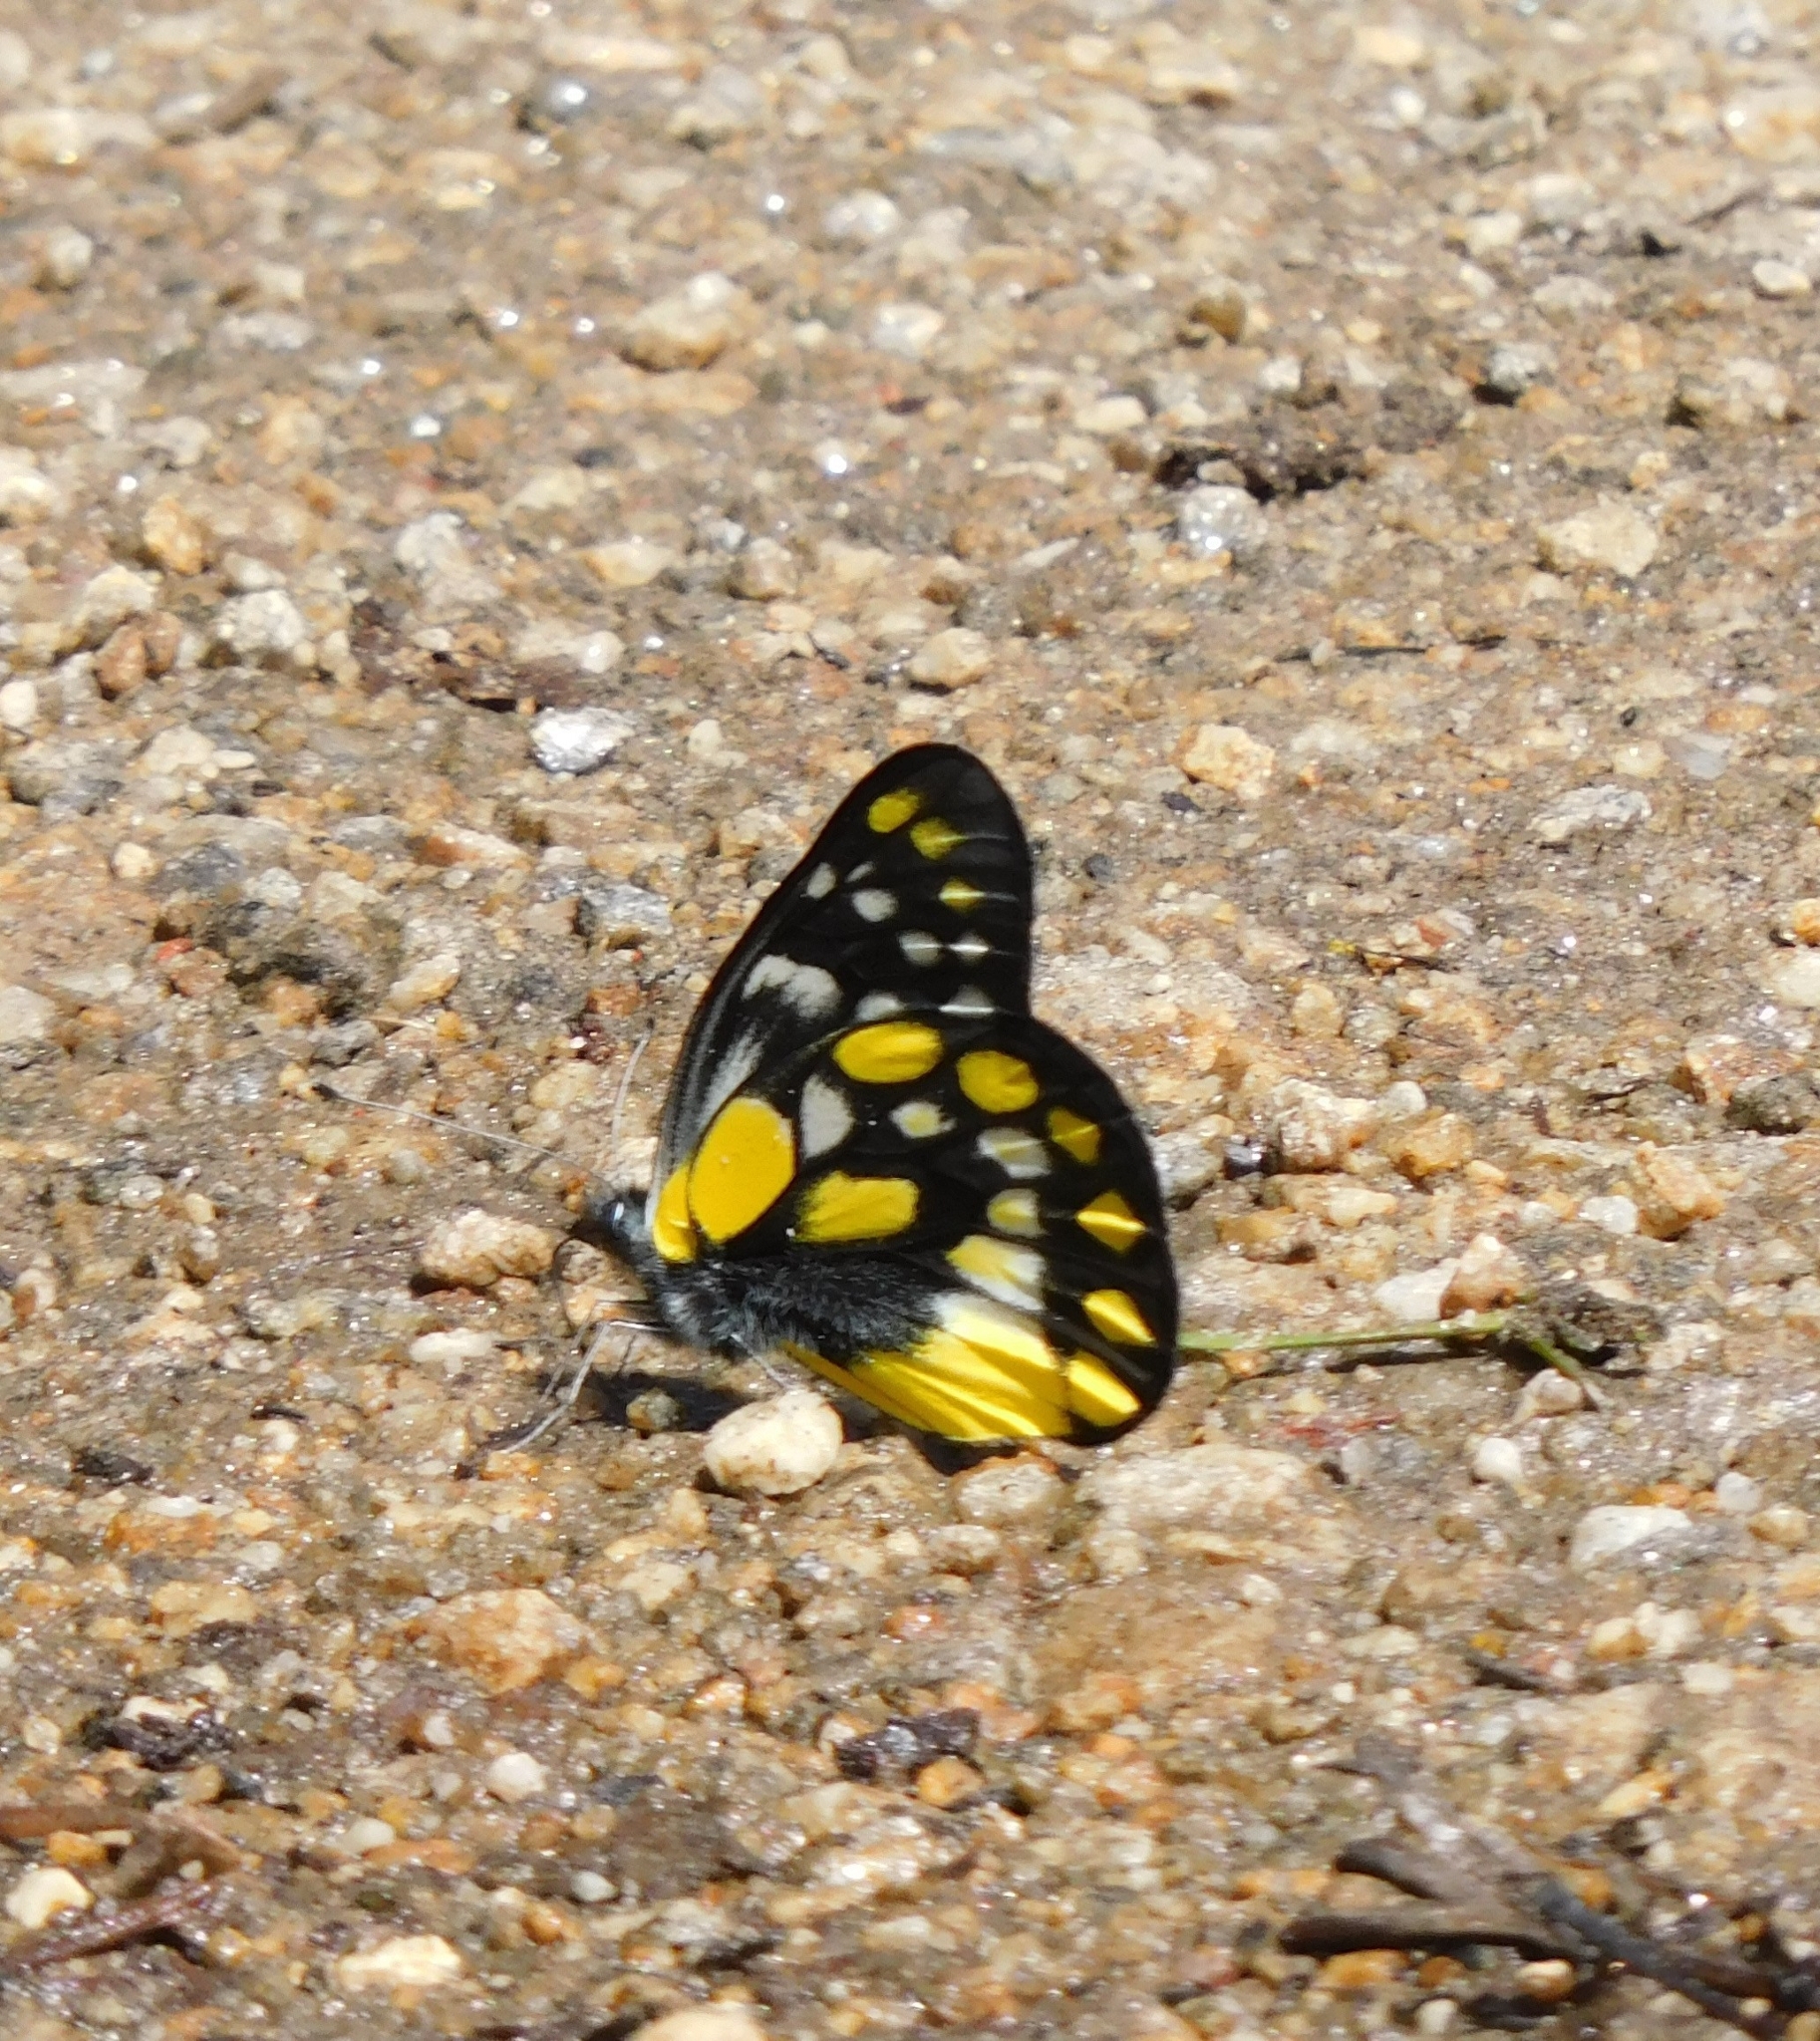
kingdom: Animalia
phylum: Arthropoda
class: Insecta
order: Lepidoptera
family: Pieridae
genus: Delias
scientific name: Delias belladonna
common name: Hill jezebel
